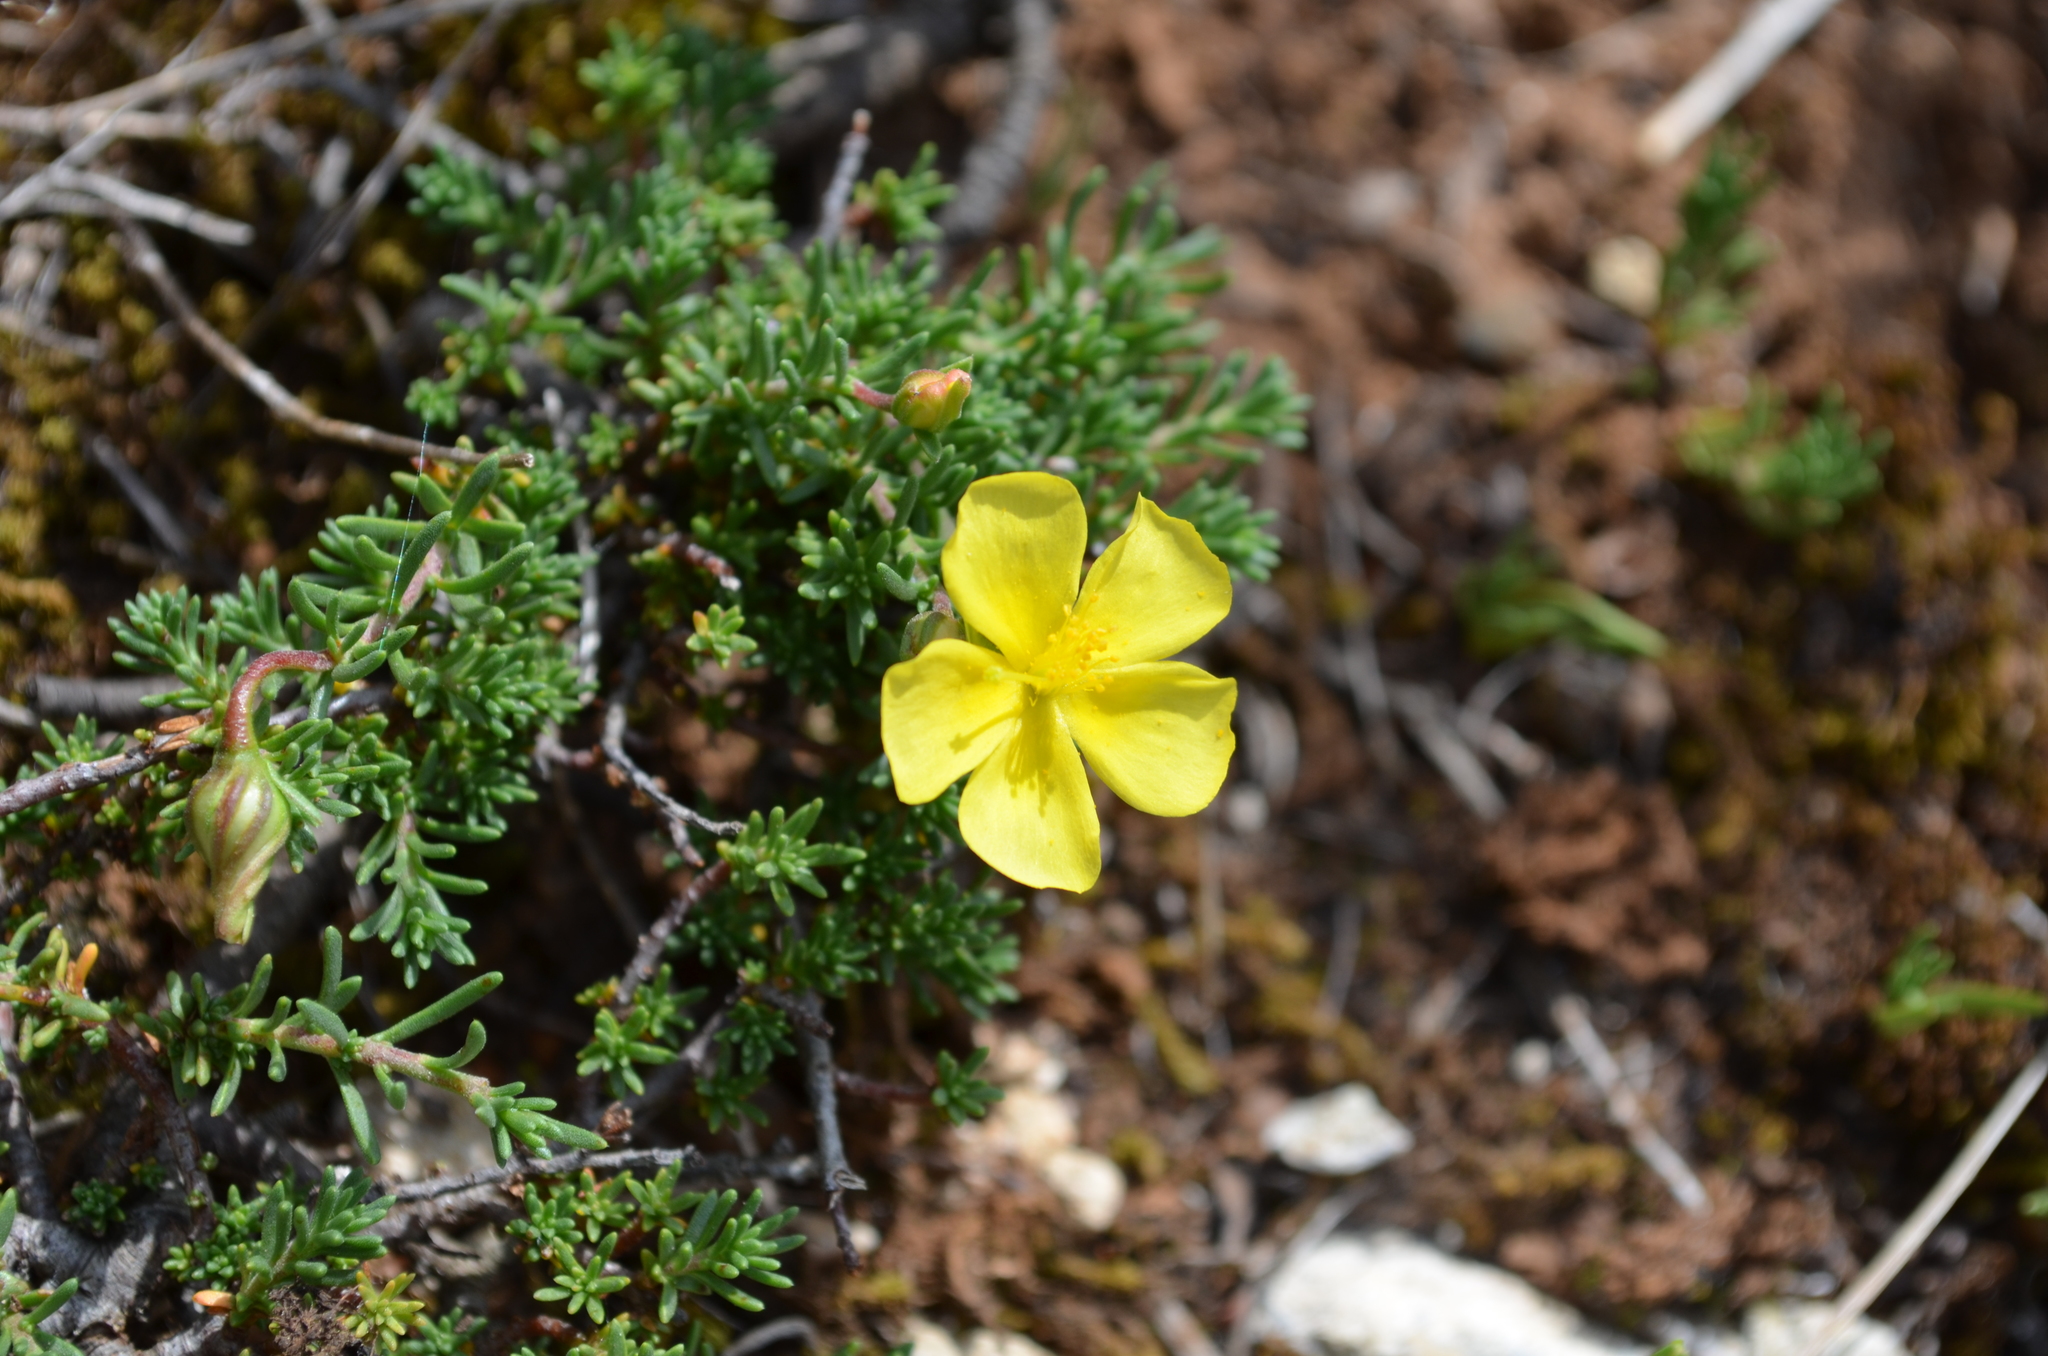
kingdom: Plantae
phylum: Tracheophyta
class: Magnoliopsida
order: Malvales
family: Cistaceae
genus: Fumana
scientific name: Fumana procumbens
